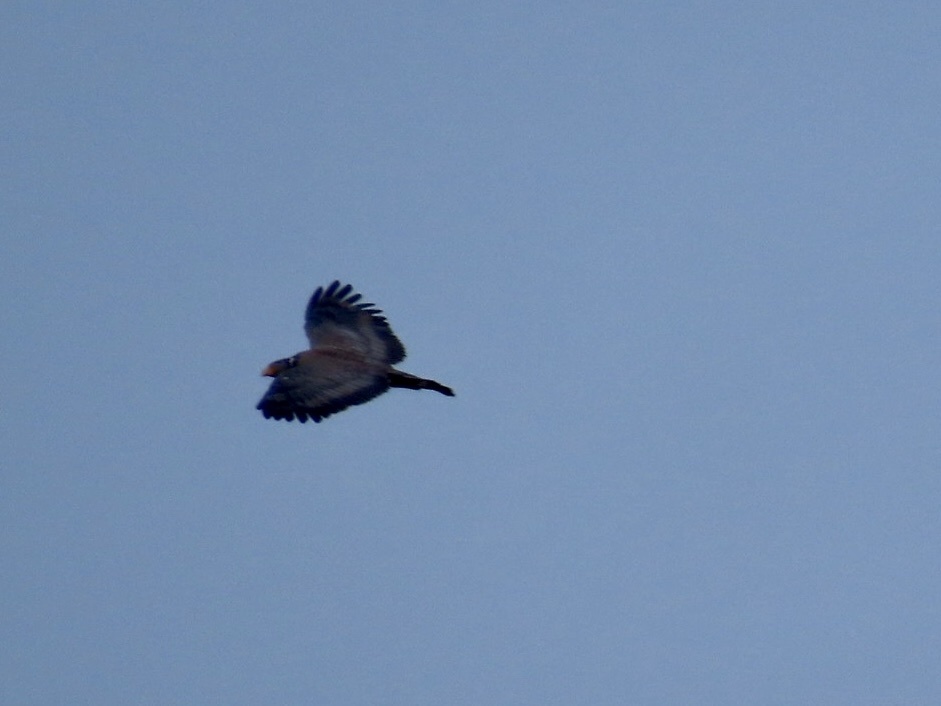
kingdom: Animalia
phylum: Chordata
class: Aves
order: Accipitriformes
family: Accipitridae
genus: Spilornis
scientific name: Spilornis cheela
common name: Crested serpent eagle
